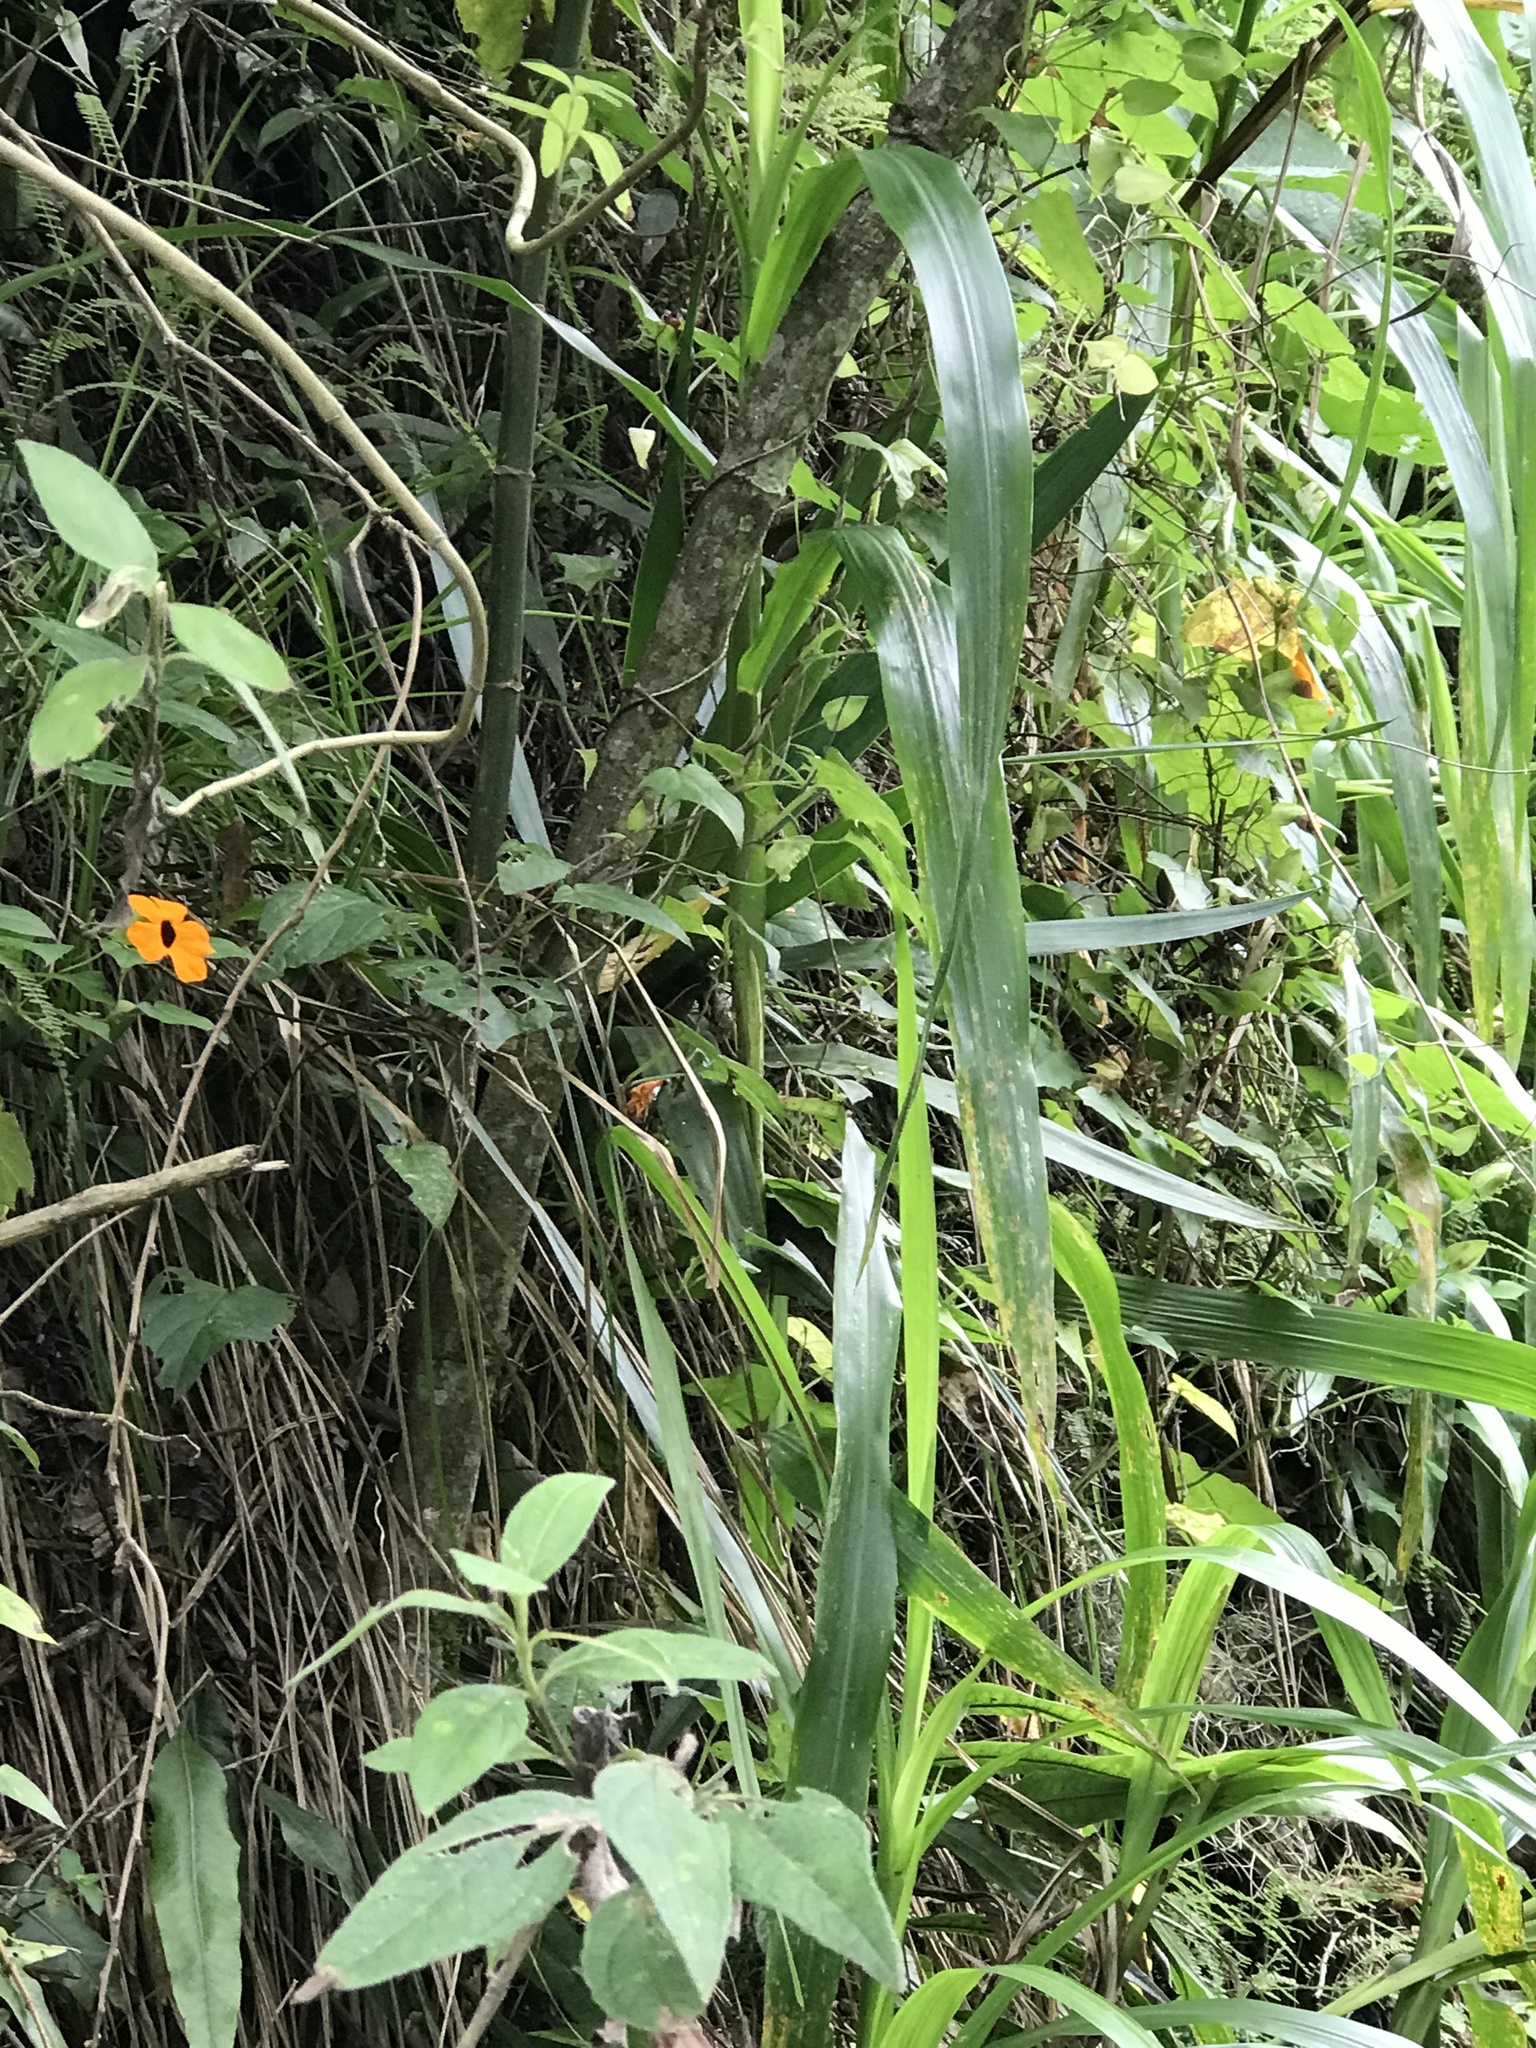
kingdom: Plantae
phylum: Tracheophyta
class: Magnoliopsida
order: Lamiales
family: Acanthaceae
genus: Thunbergia
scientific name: Thunbergia alata
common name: Blackeyed susan vine
